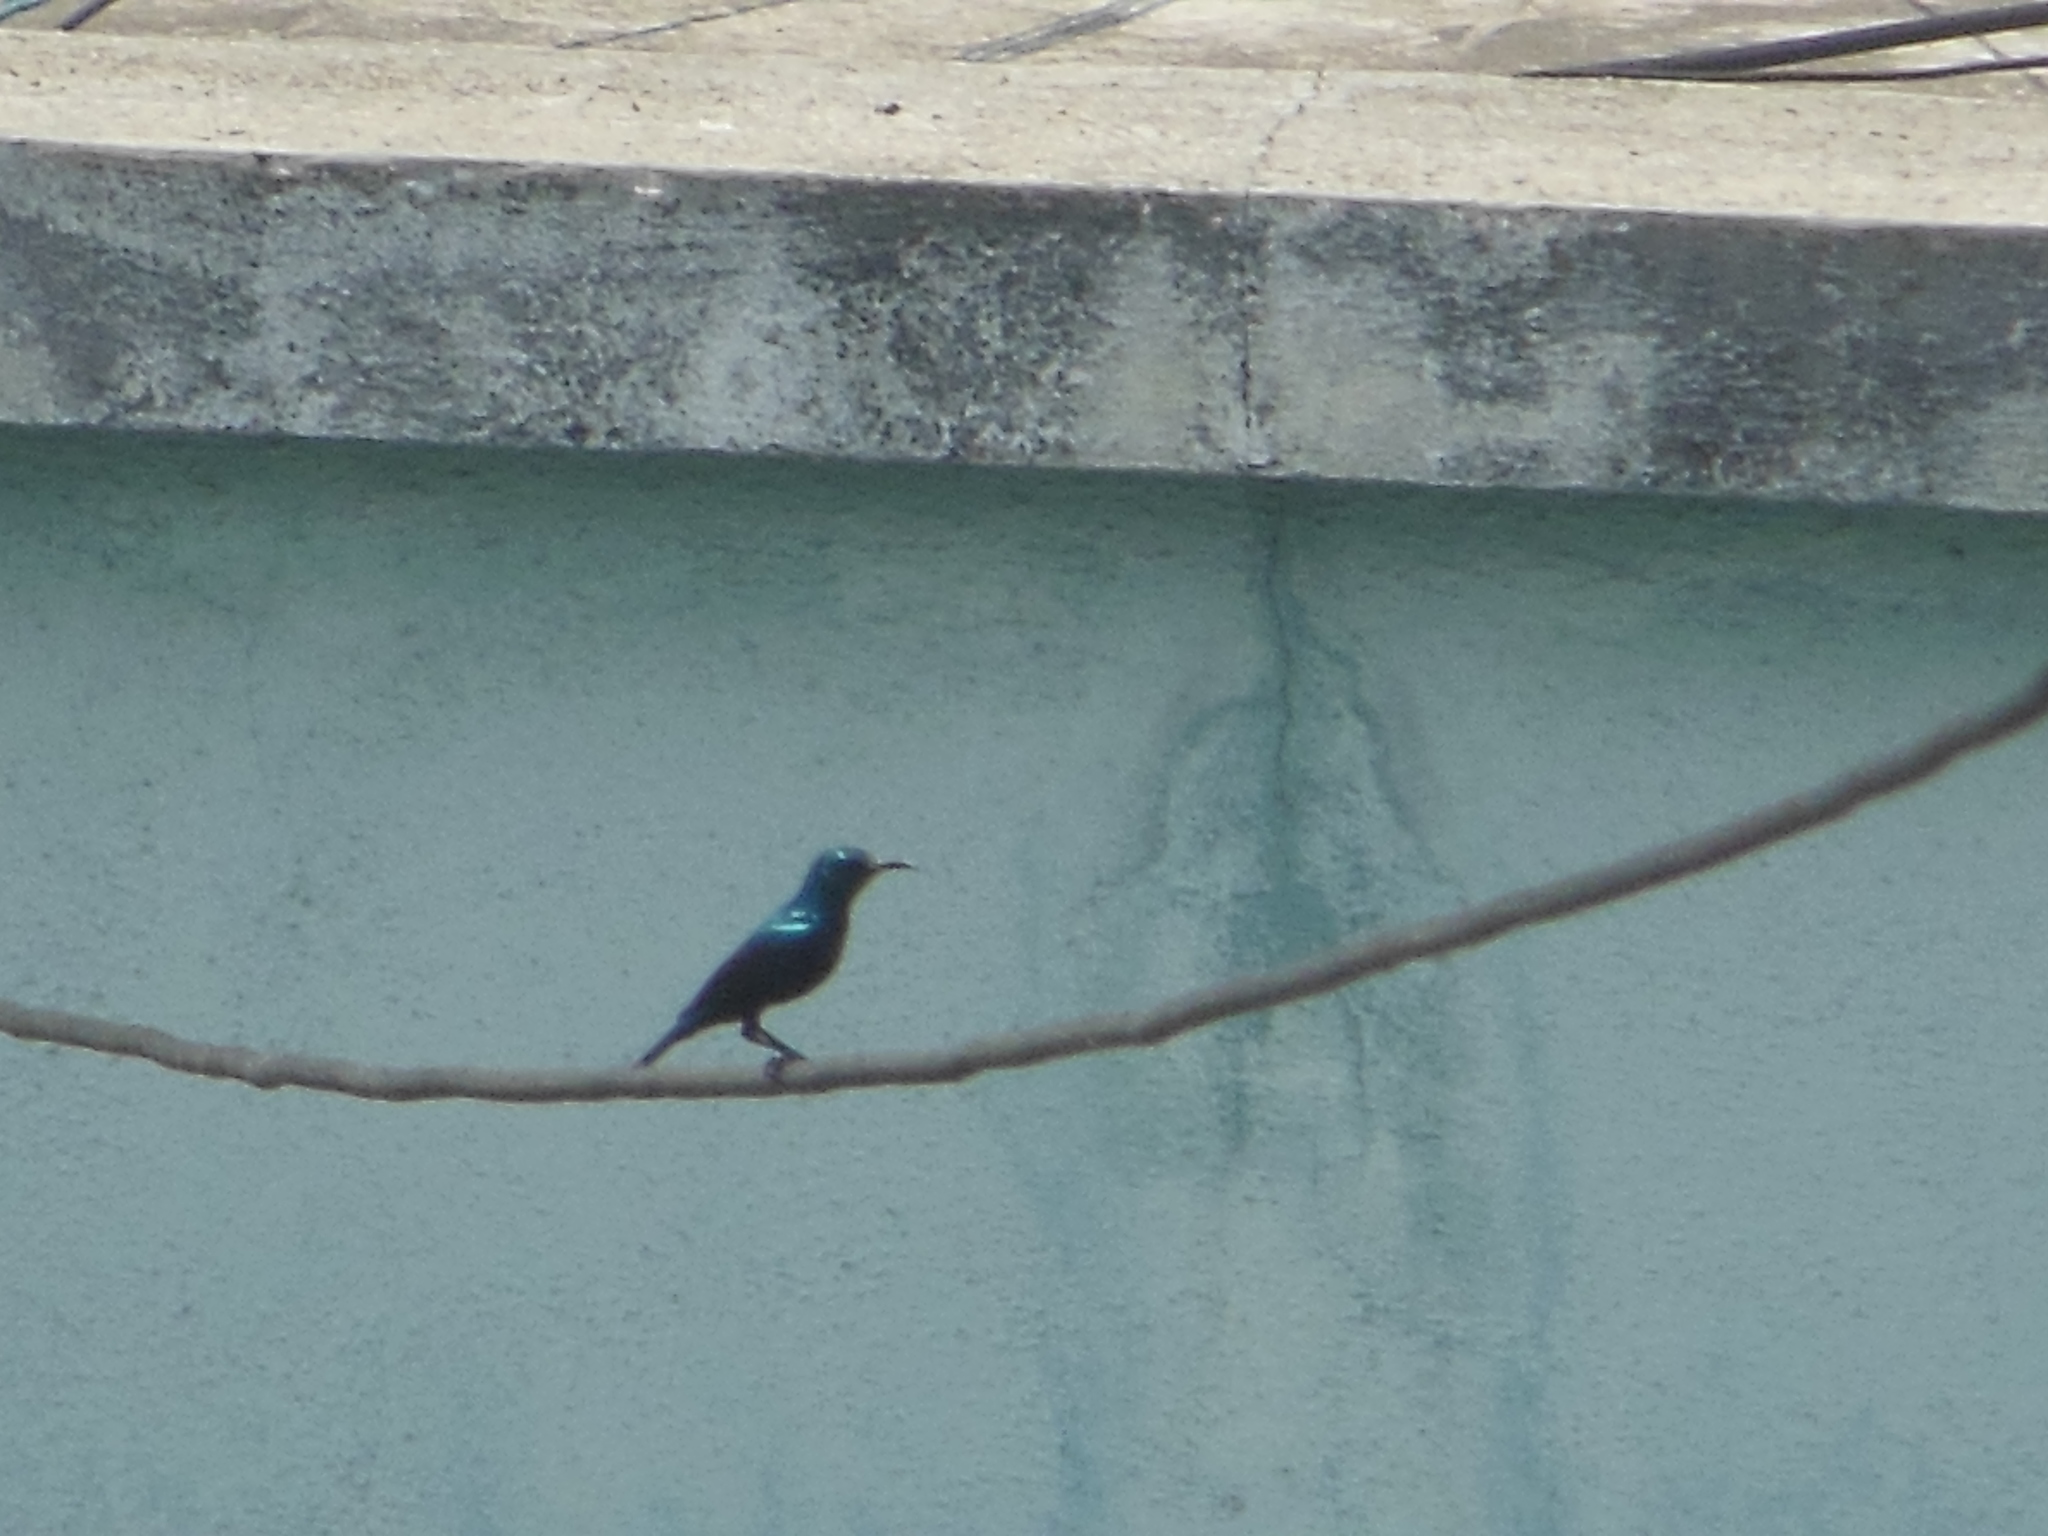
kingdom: Animalia
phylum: Chordata
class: Aves
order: Passeriformes
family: Nectariniidae
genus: Cinnyris
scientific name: Cinnyris asiaticus
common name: Purple sunbird
